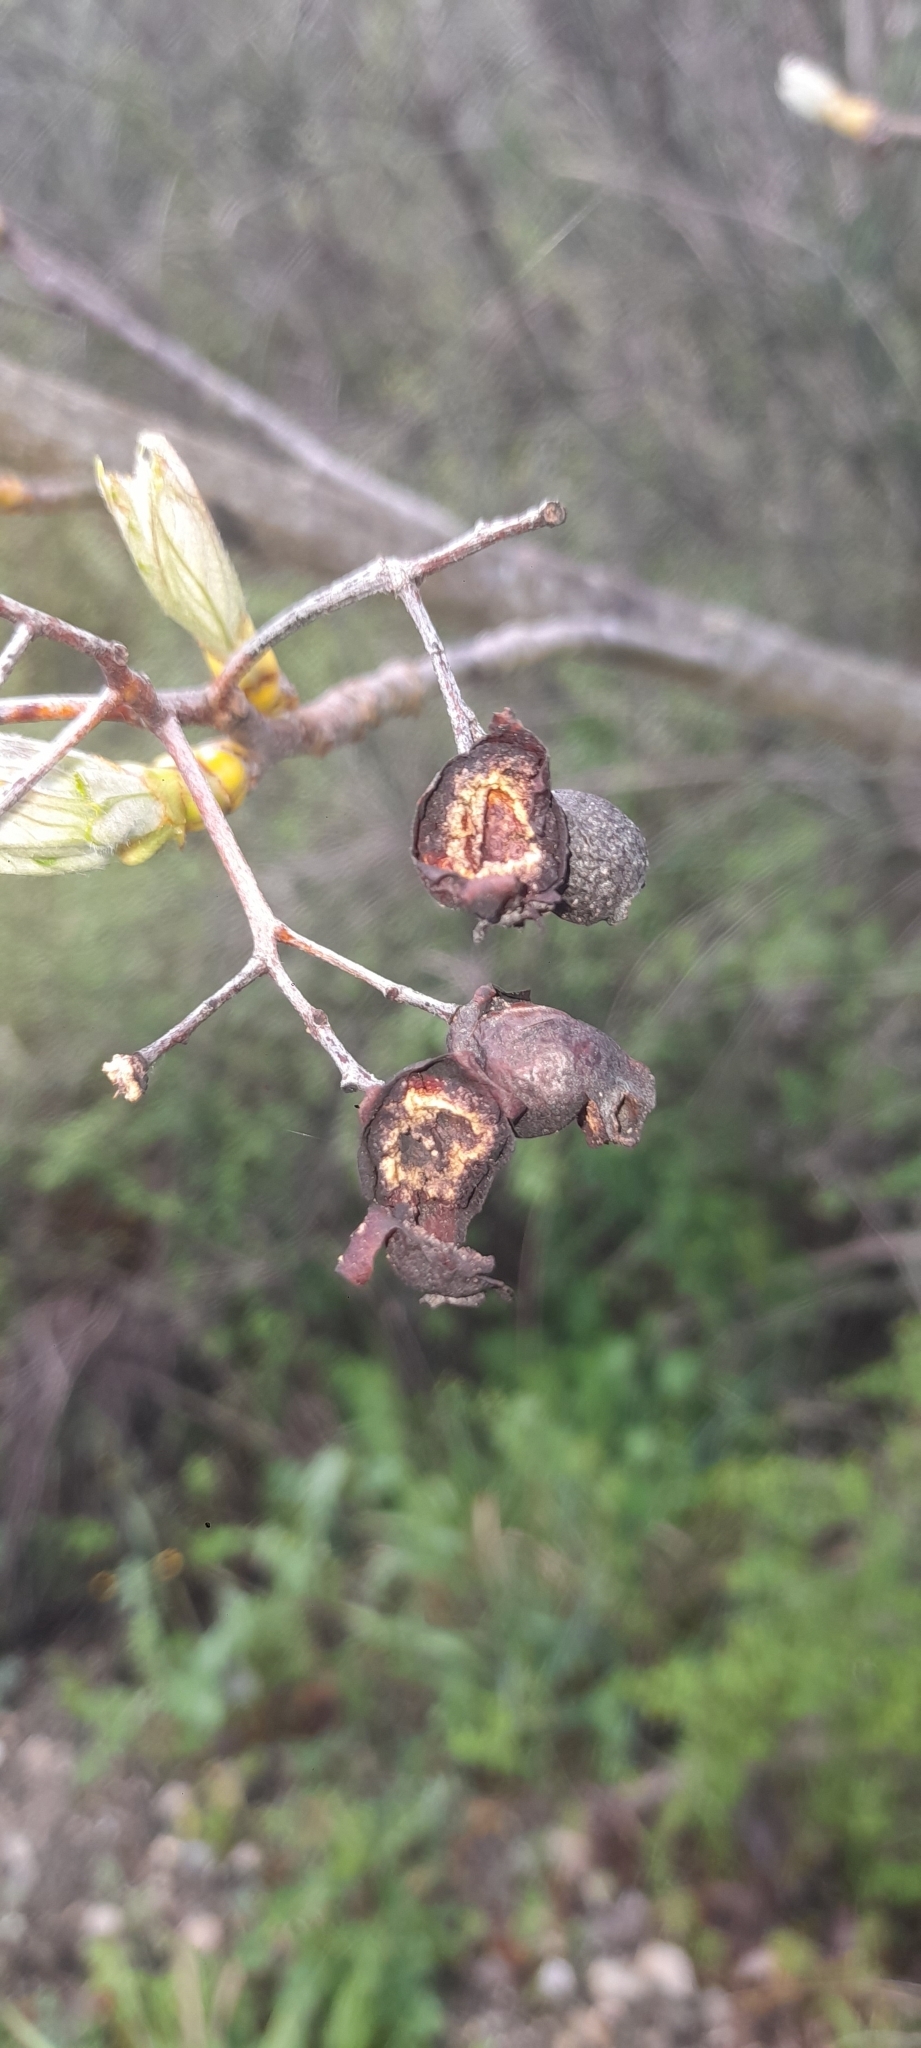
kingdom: Plantae
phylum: Tracheophyta
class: Magnoliopsida
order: Rosales
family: Rosaceae
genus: Torminalis
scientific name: Torminalis glaberrima
